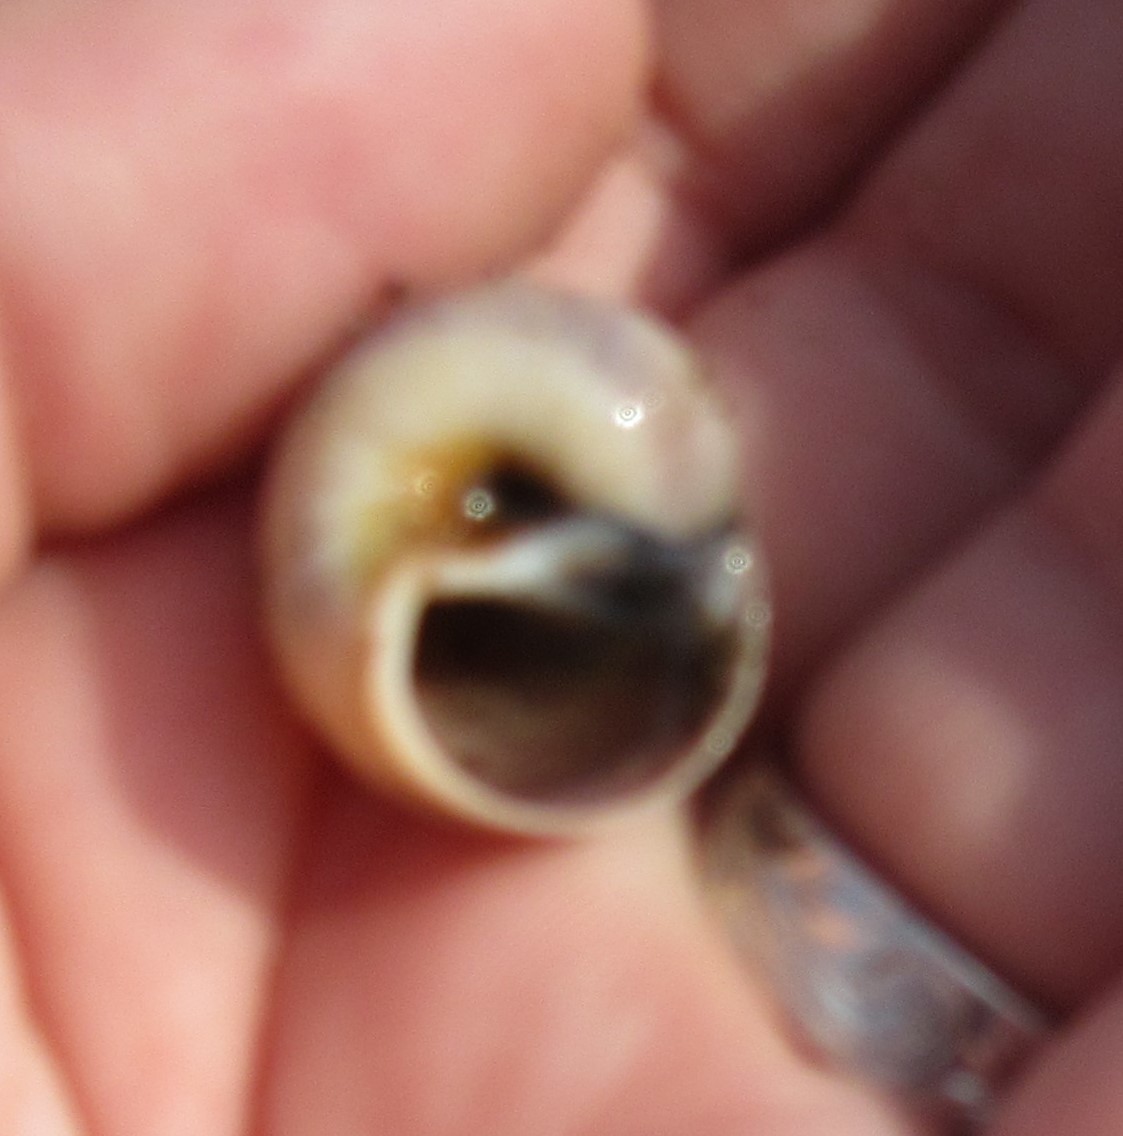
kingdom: Animalia
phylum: Mollusca
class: Gastropoda
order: Littorinimorpha
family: Naticidae
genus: Euspira
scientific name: Euspira heros
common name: Common northern moonsnail
